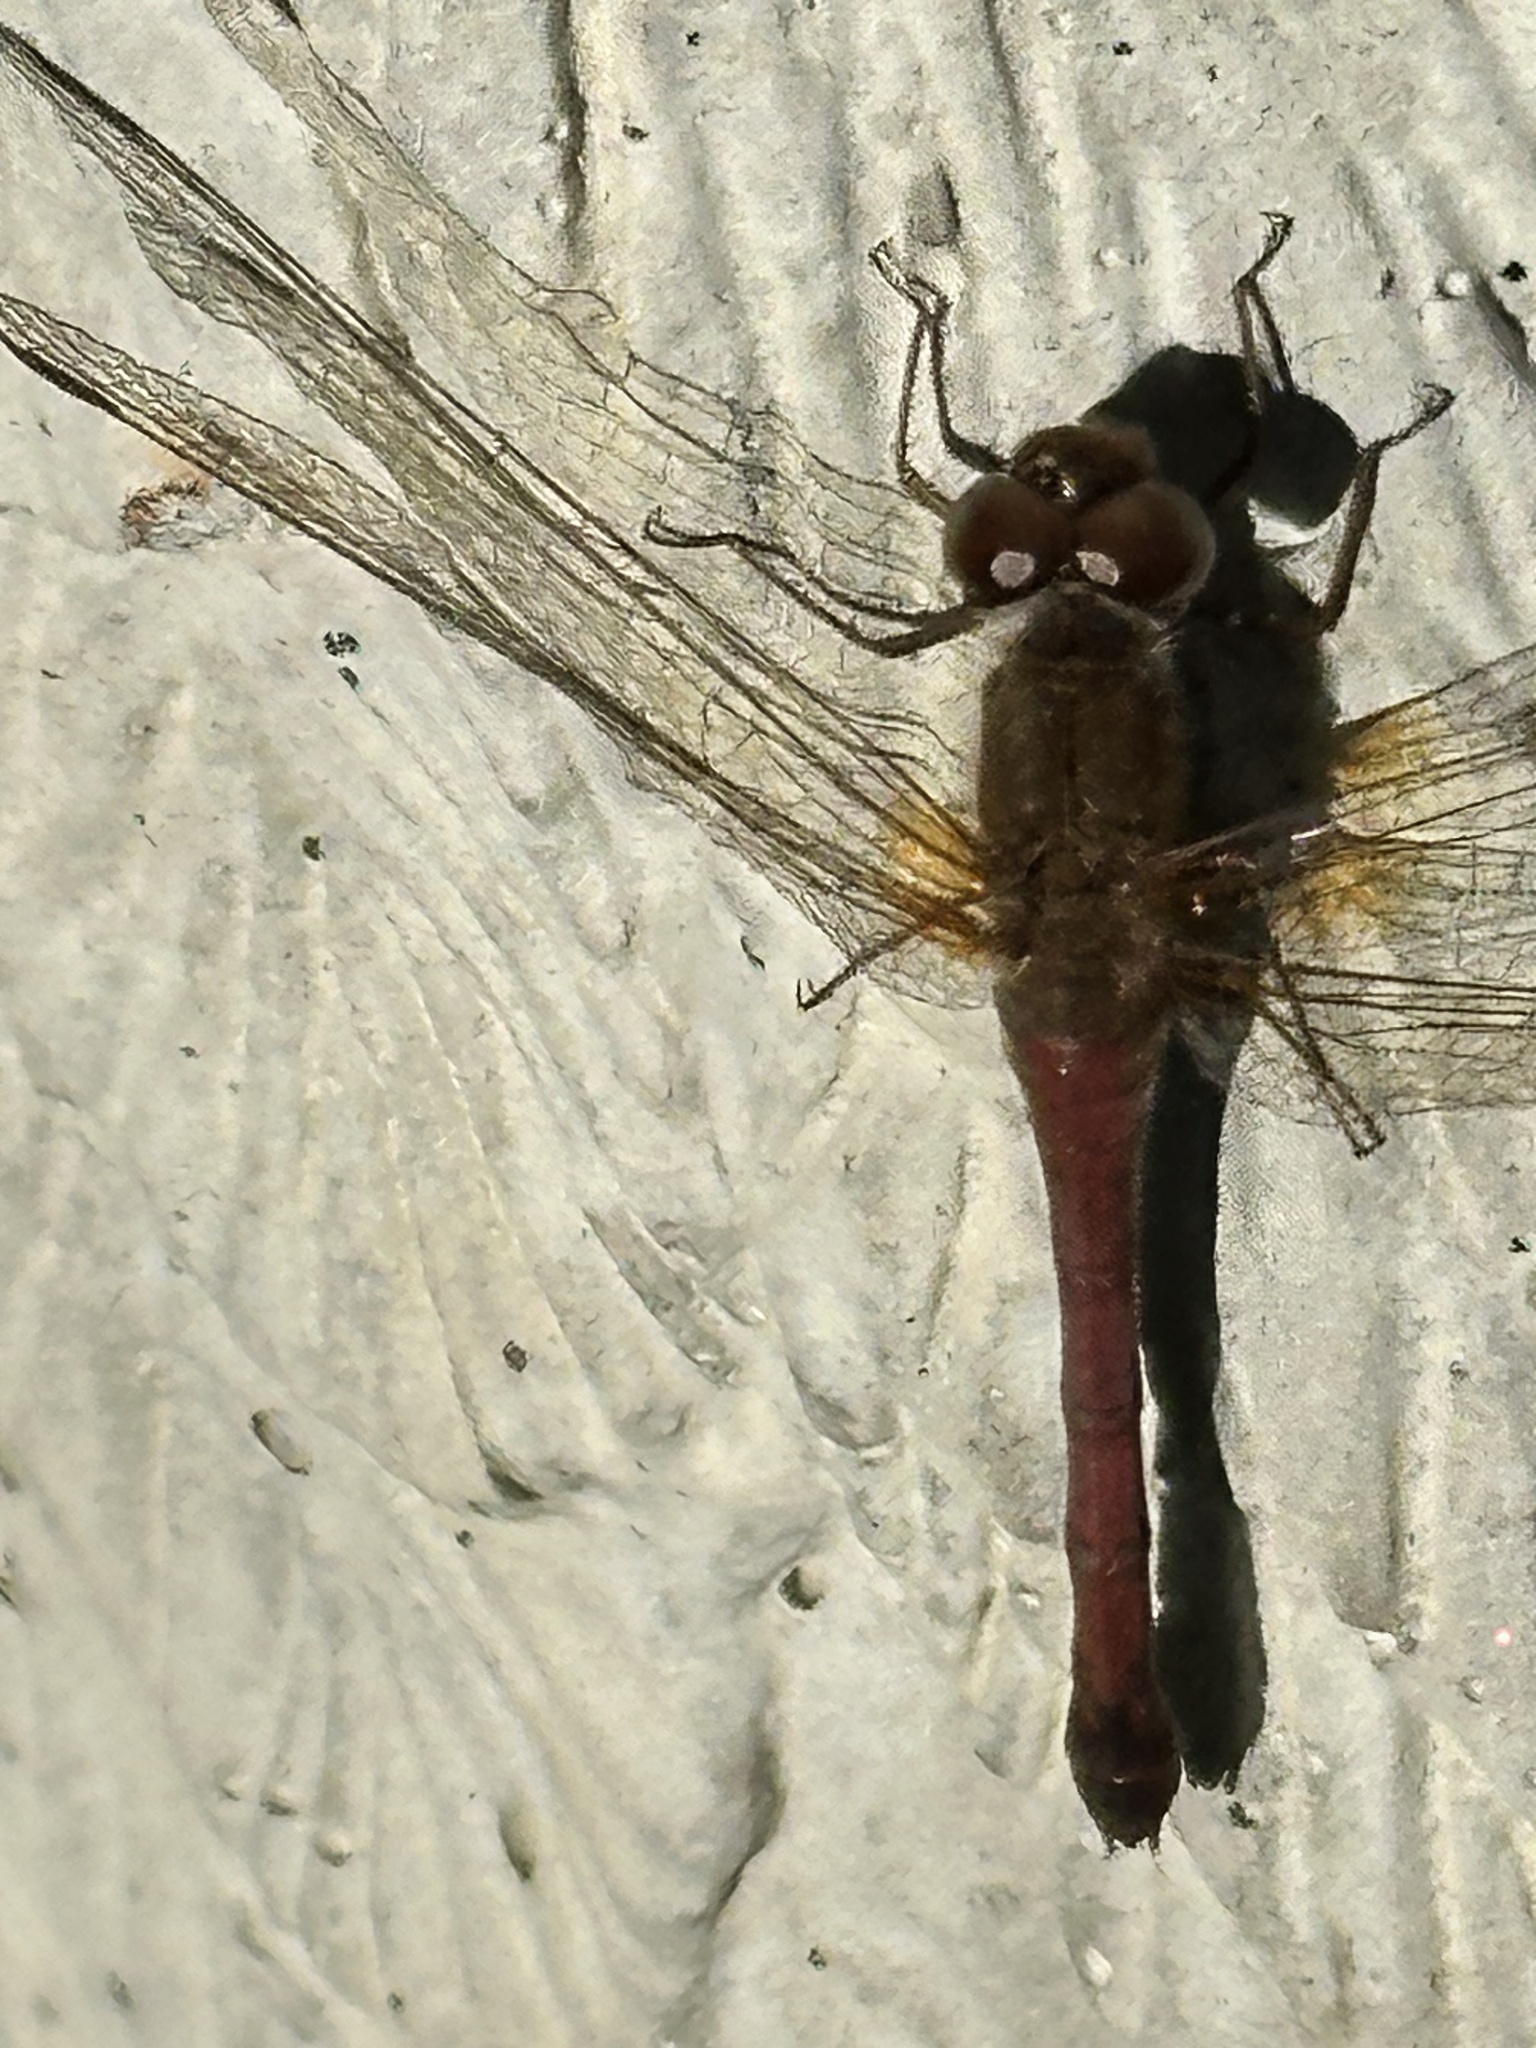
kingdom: Animalia
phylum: Arthropoda
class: Insecta
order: Odonata
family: Libellulidae
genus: Sympetrum
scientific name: Sympetrum vicinum
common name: Autumn meadowhawk
